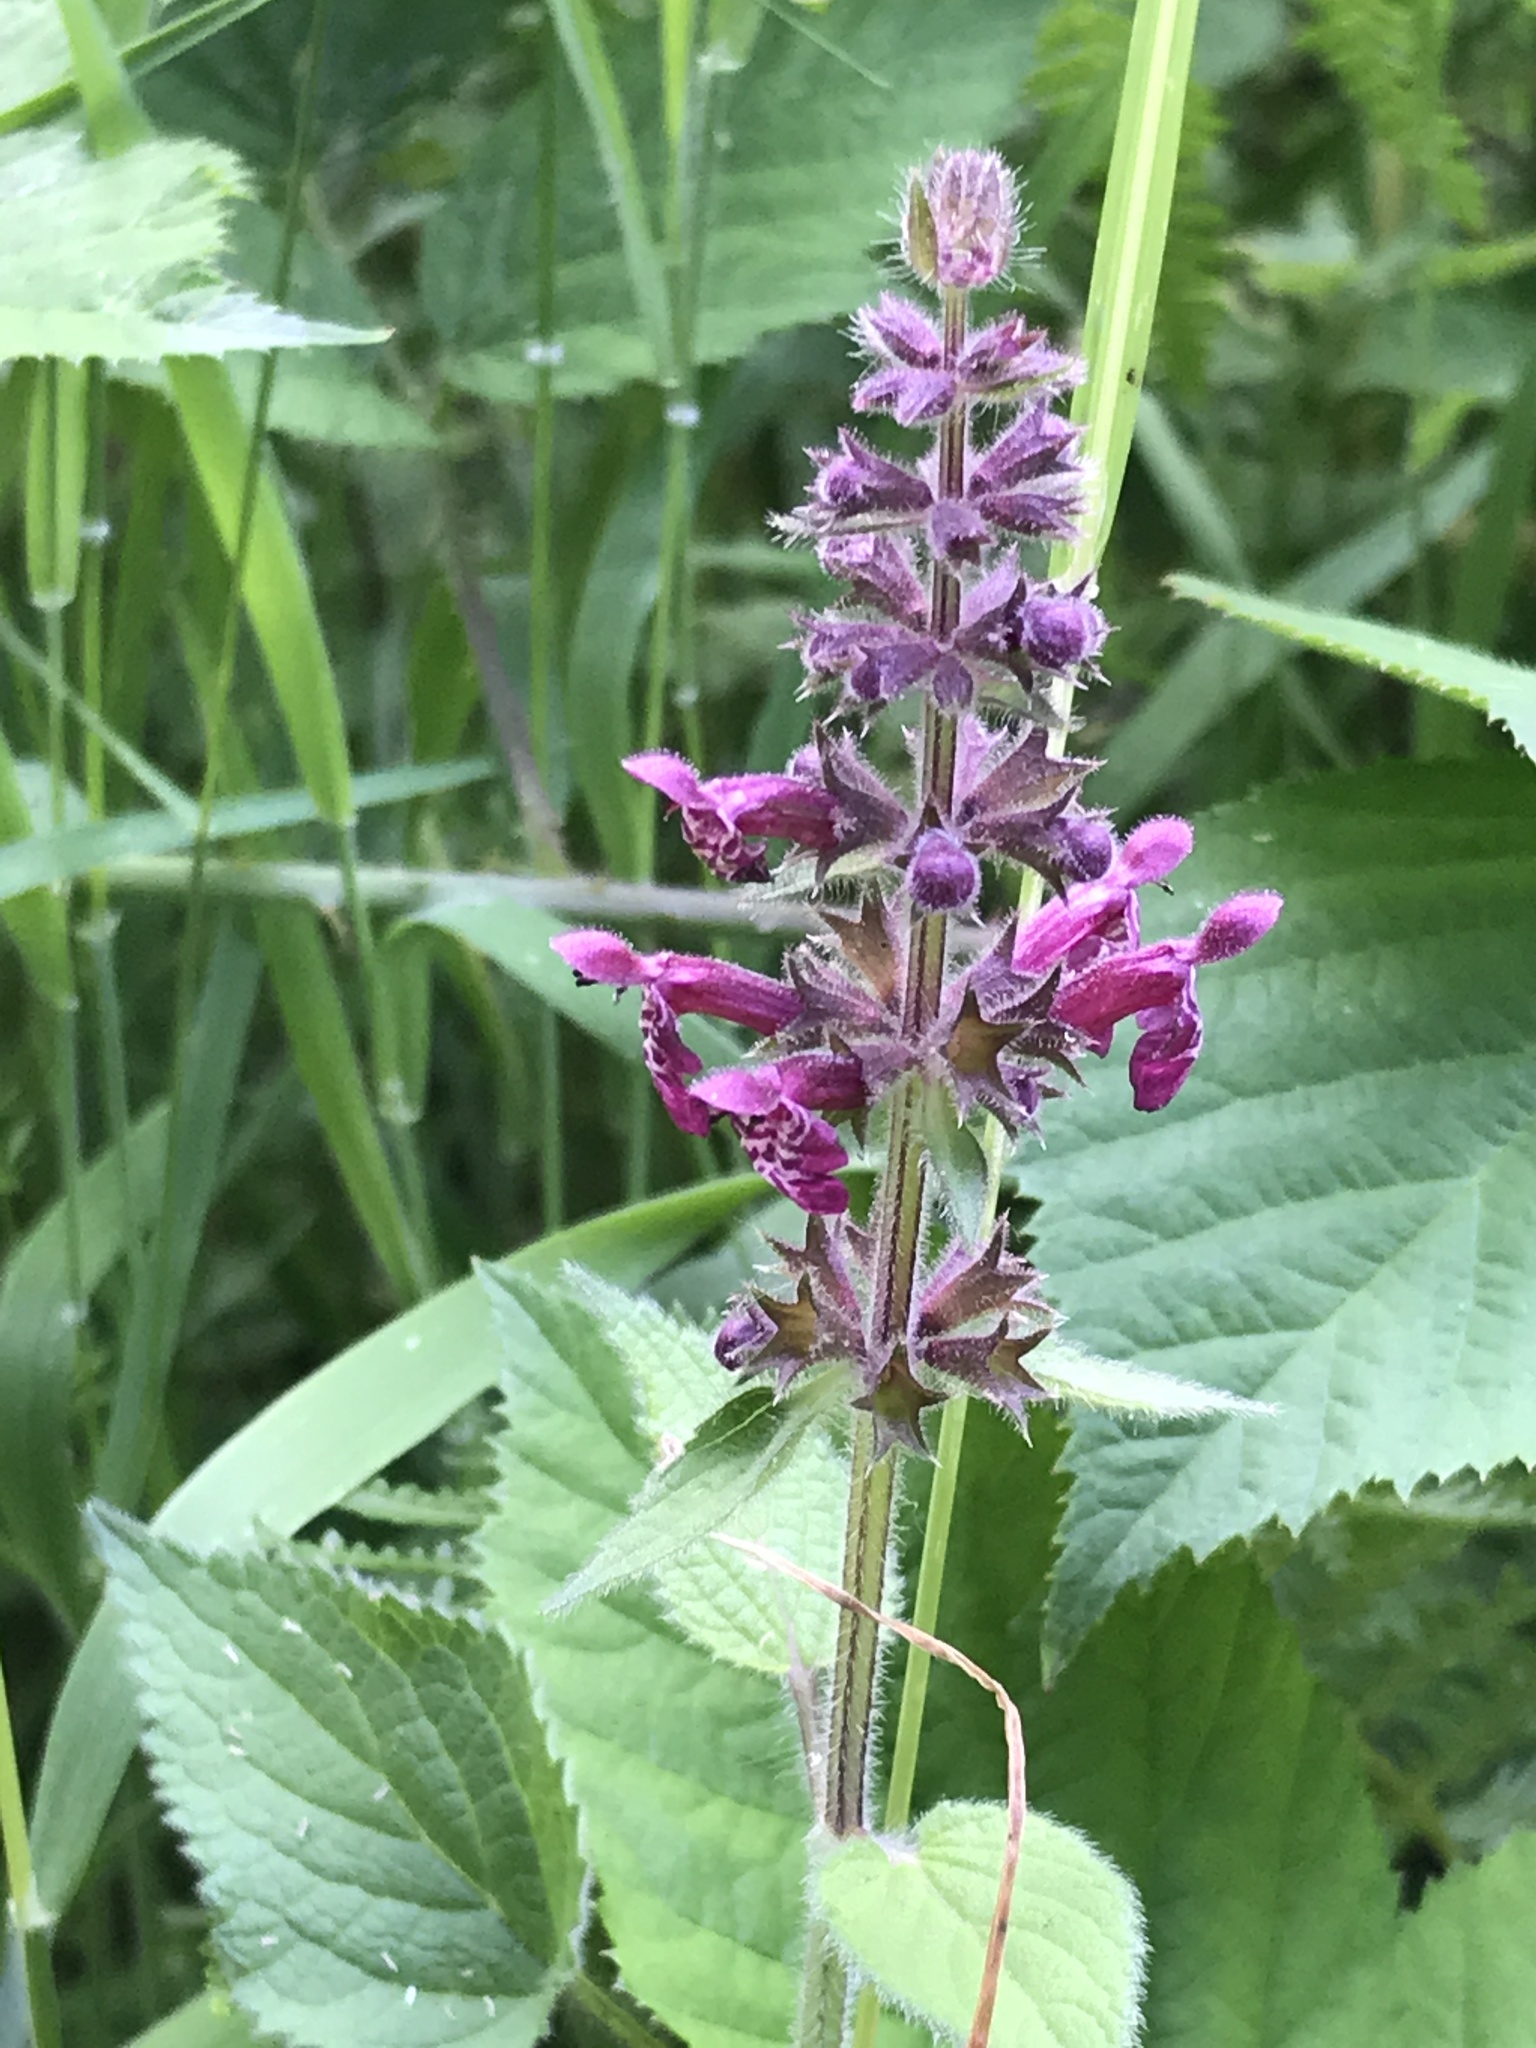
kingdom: Plantae
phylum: Tracheophyta
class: Magnoliopsida
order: Lamiales
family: Lamiaceae
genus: Stachys
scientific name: Stachys sylvatica
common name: Hedge woundwort
